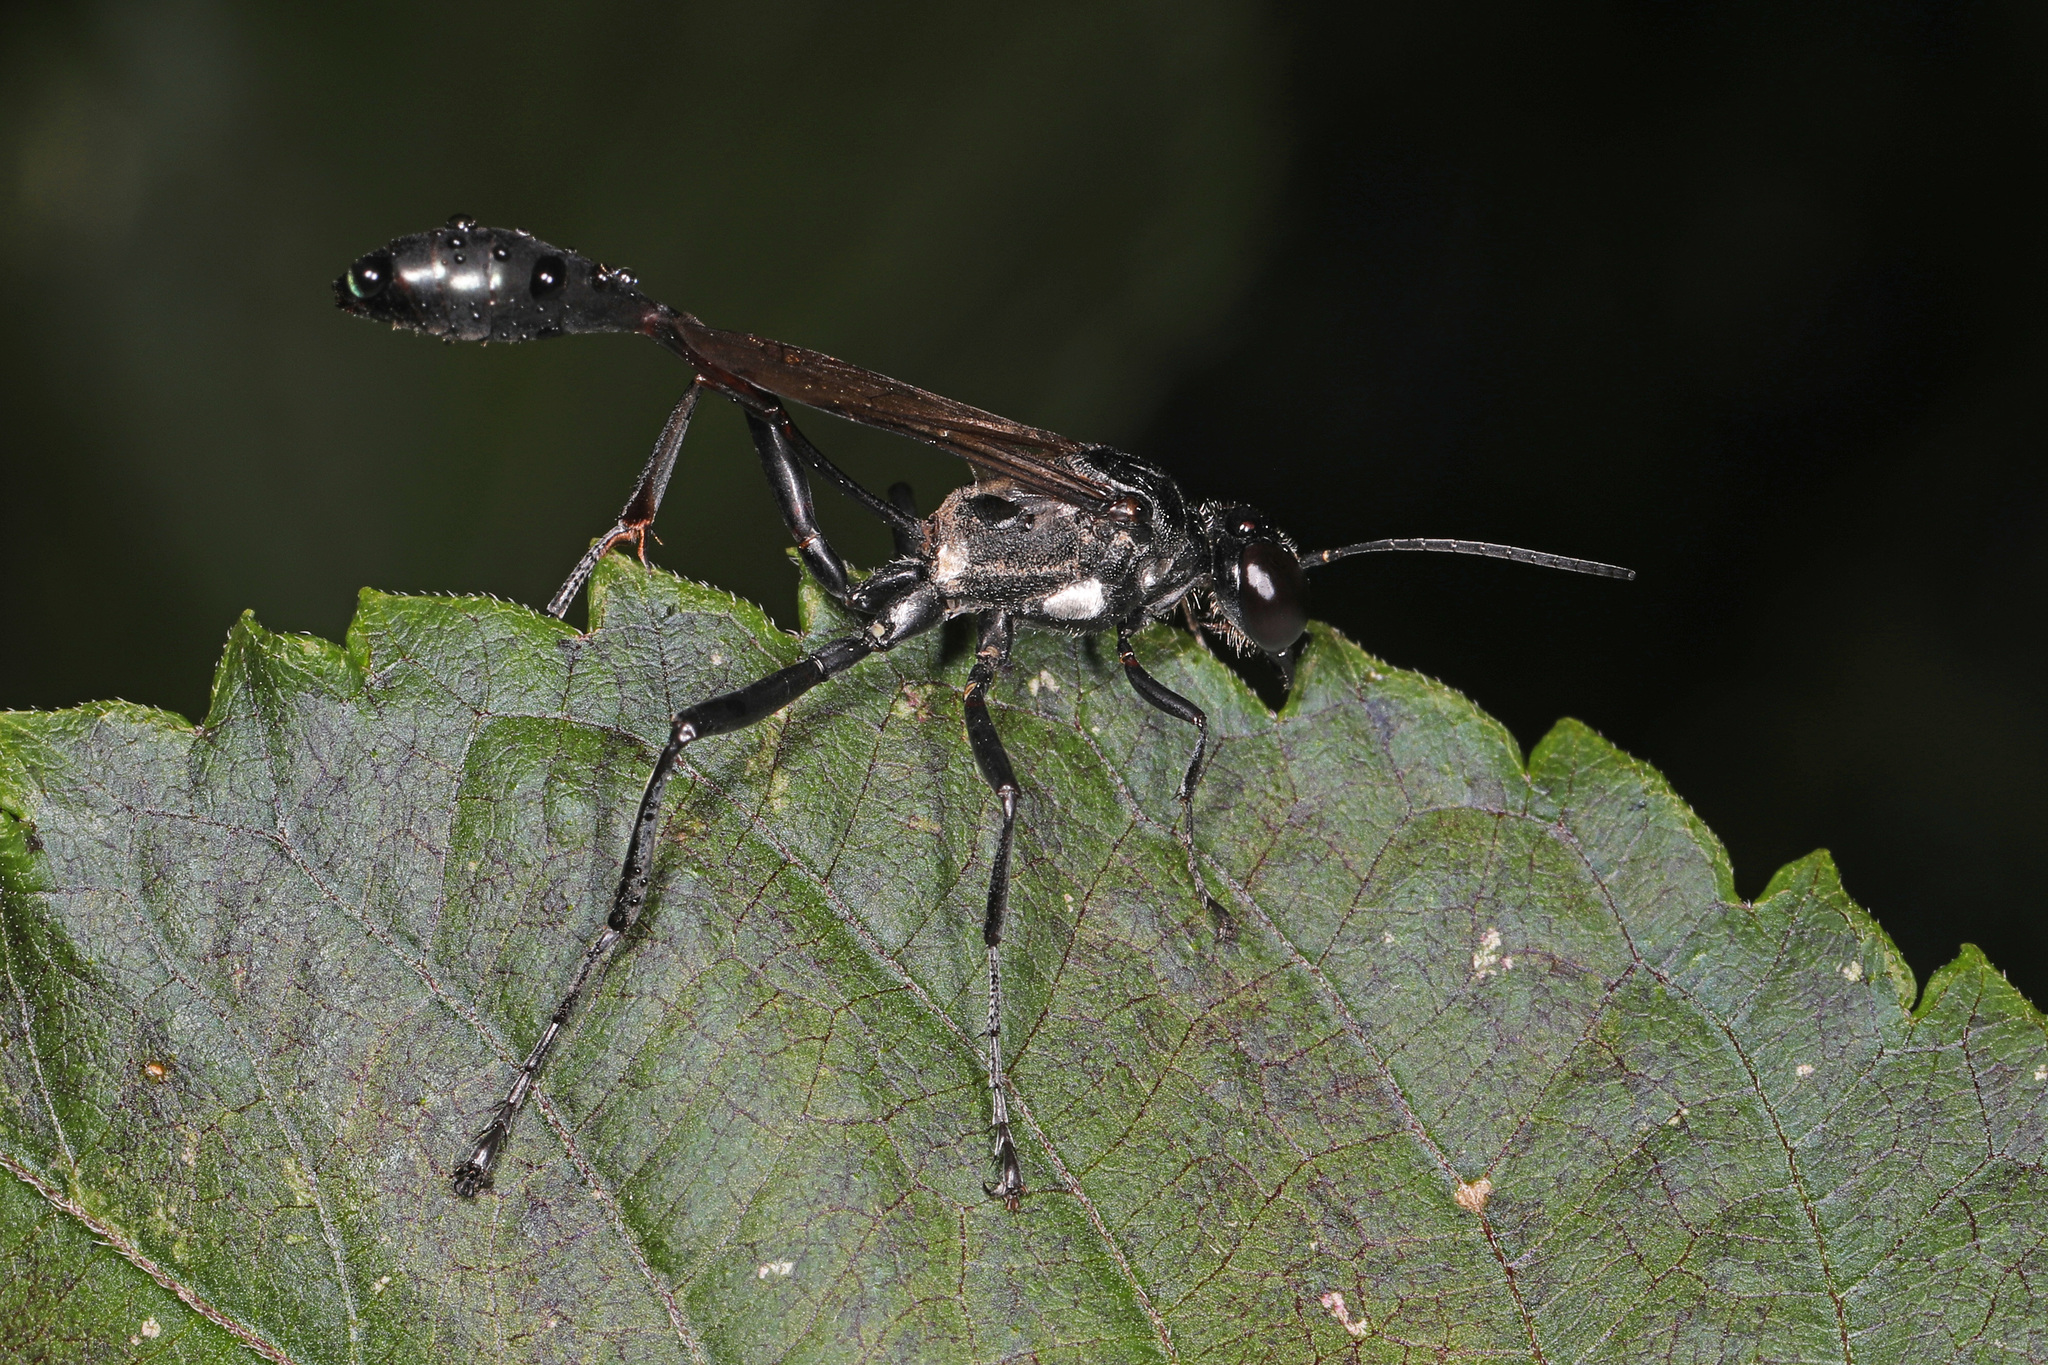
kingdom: Animalia
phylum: Arthropoda
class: Insecta
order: Hymenoptera
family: Sphecidae
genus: Eremnophila
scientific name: Eremnophila aureonotata
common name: Gold-marked thread-waisted wasp
